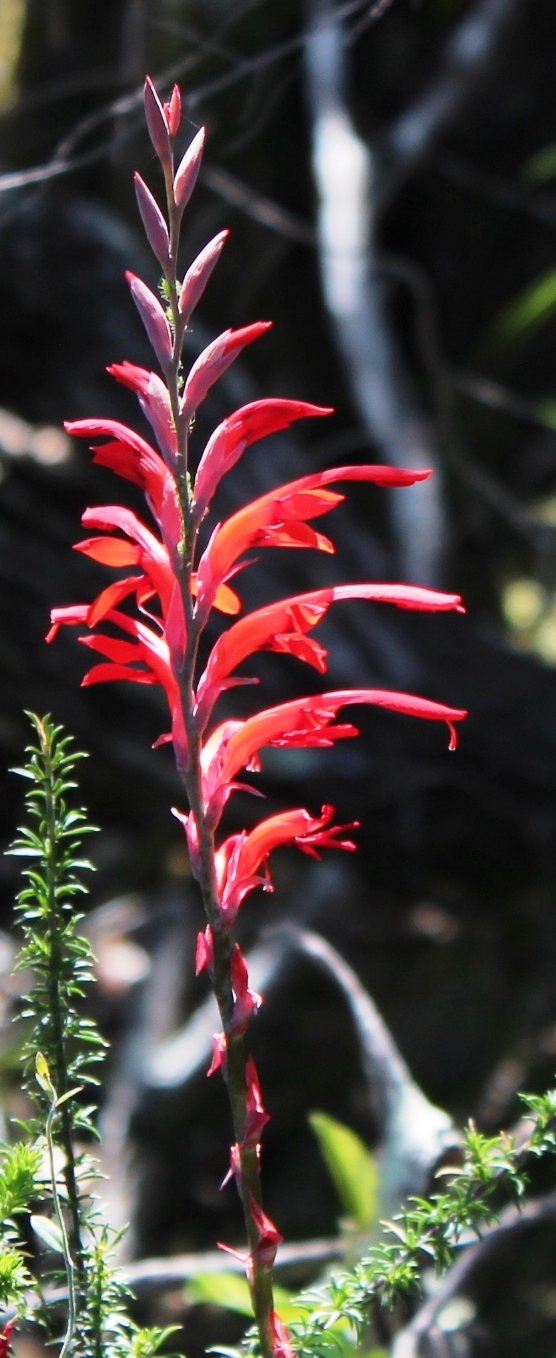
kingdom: Plantae
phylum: Tracheophyta
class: Liliopsida
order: Asparagales
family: Iridaceae
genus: Tritoniopsis
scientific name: Tritoniopsis caffra
